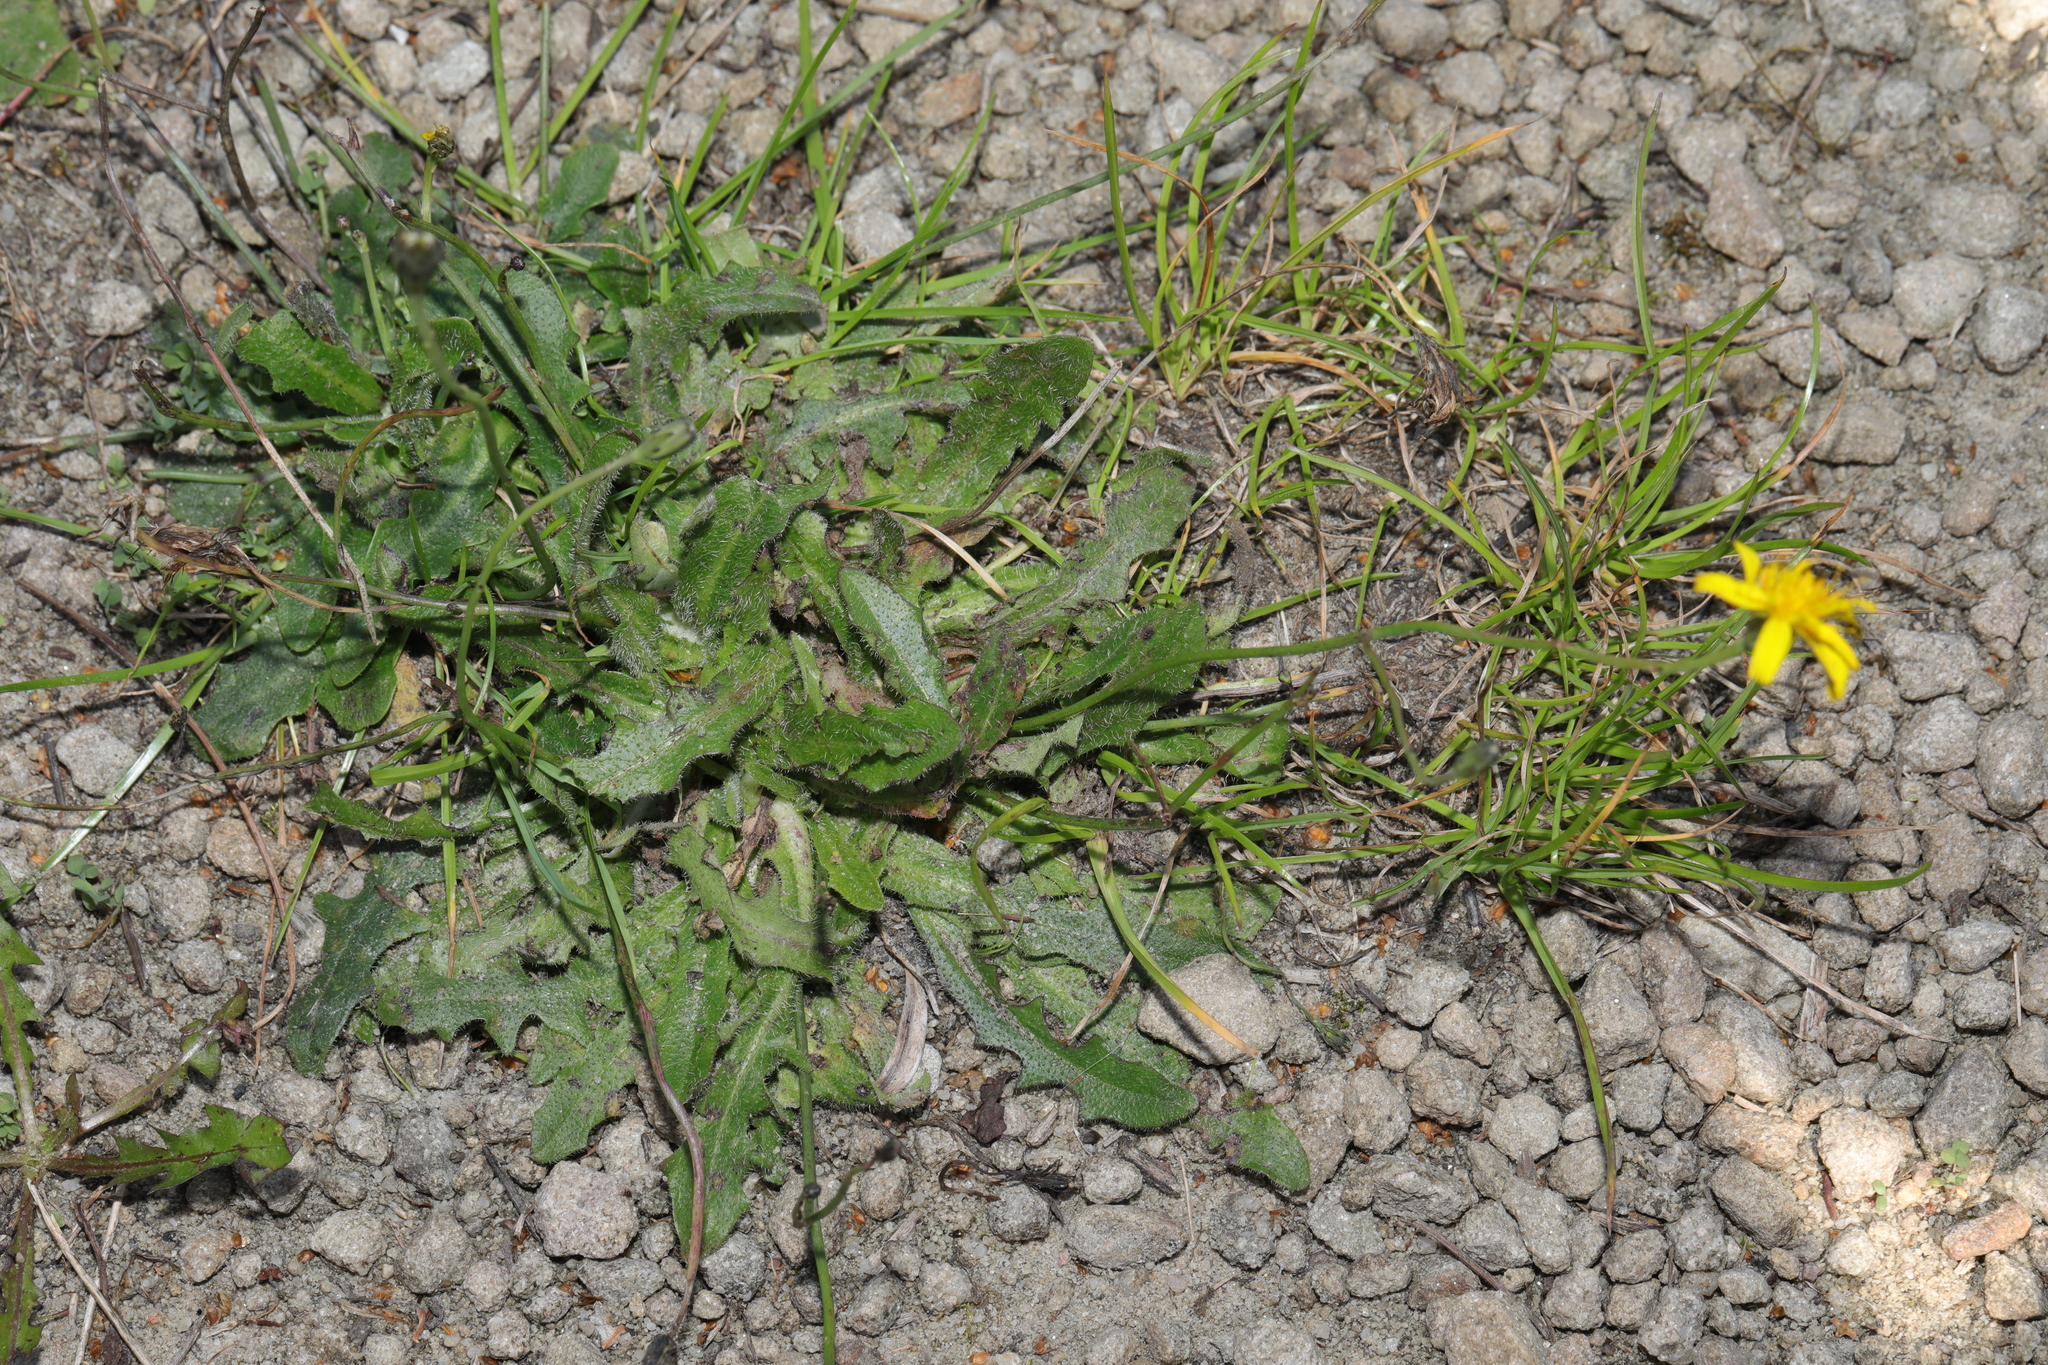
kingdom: Plantae
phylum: Tracheophyta
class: Magnoliopsida
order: Asterales
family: Asteraceae
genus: Hypochaeris
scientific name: Hypochaeris radicata
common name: Flatweed
